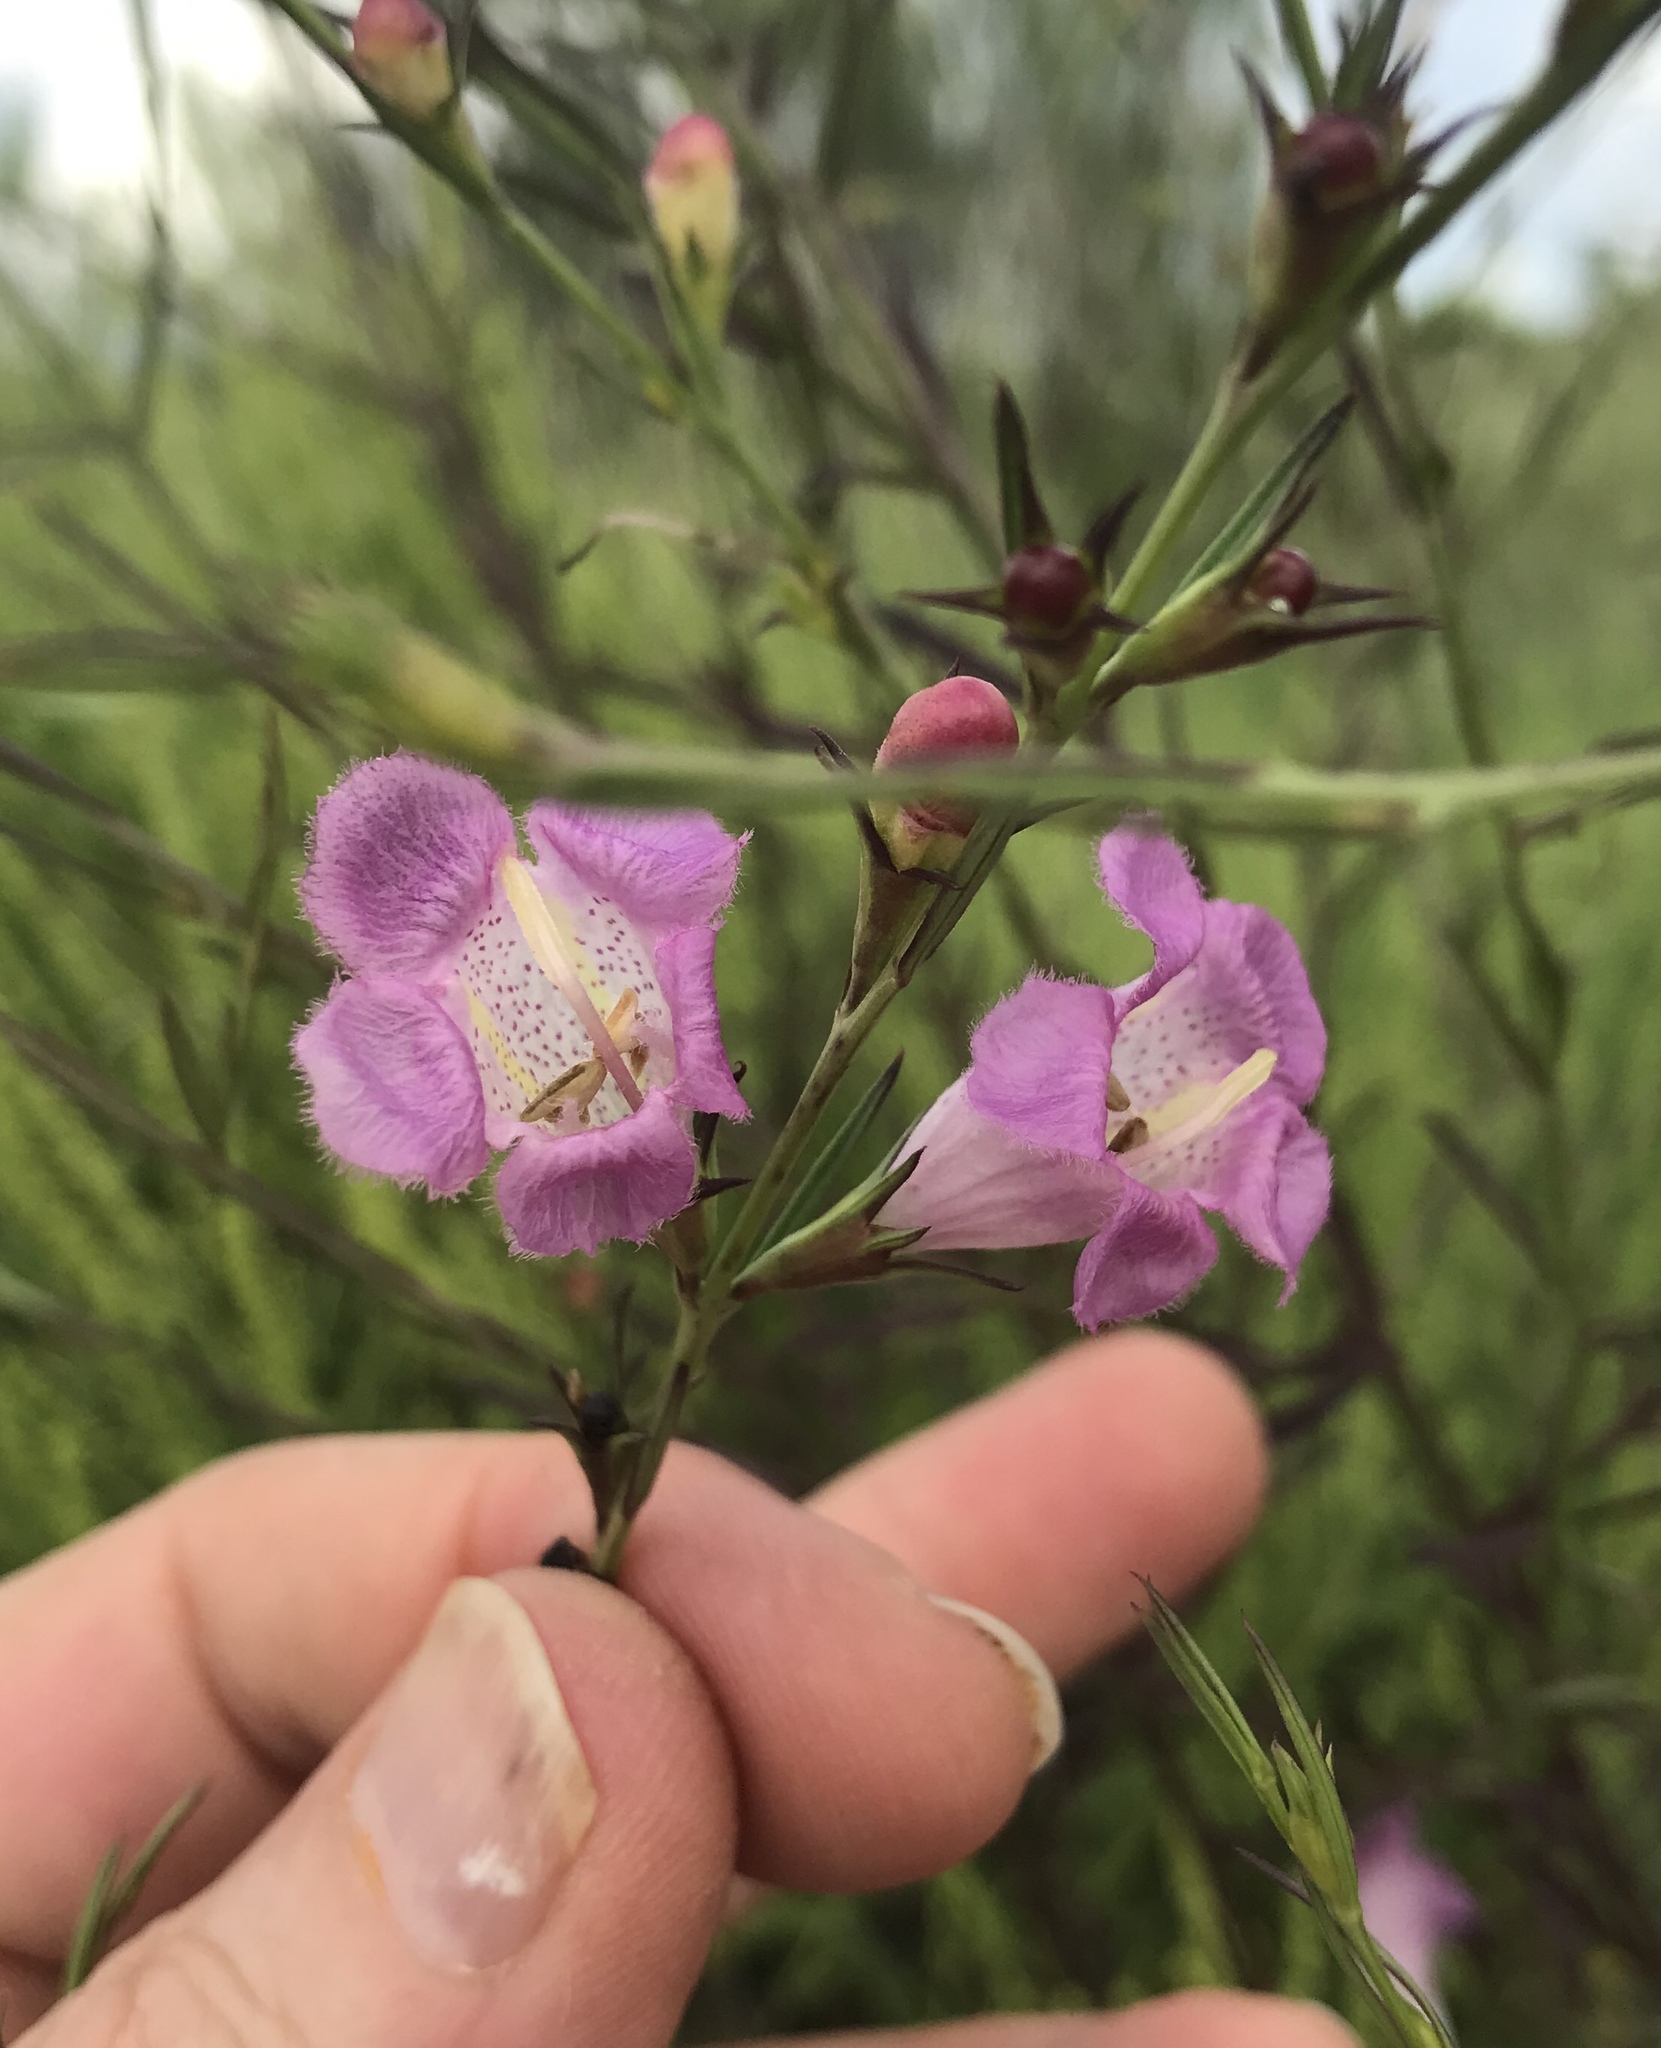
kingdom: Plantae
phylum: Tracheophyta
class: Magnoliopsida
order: Lamiales
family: Orobanchaceae
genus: Agalinis
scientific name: Agalinis heterophylla
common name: Prairie agalinis
